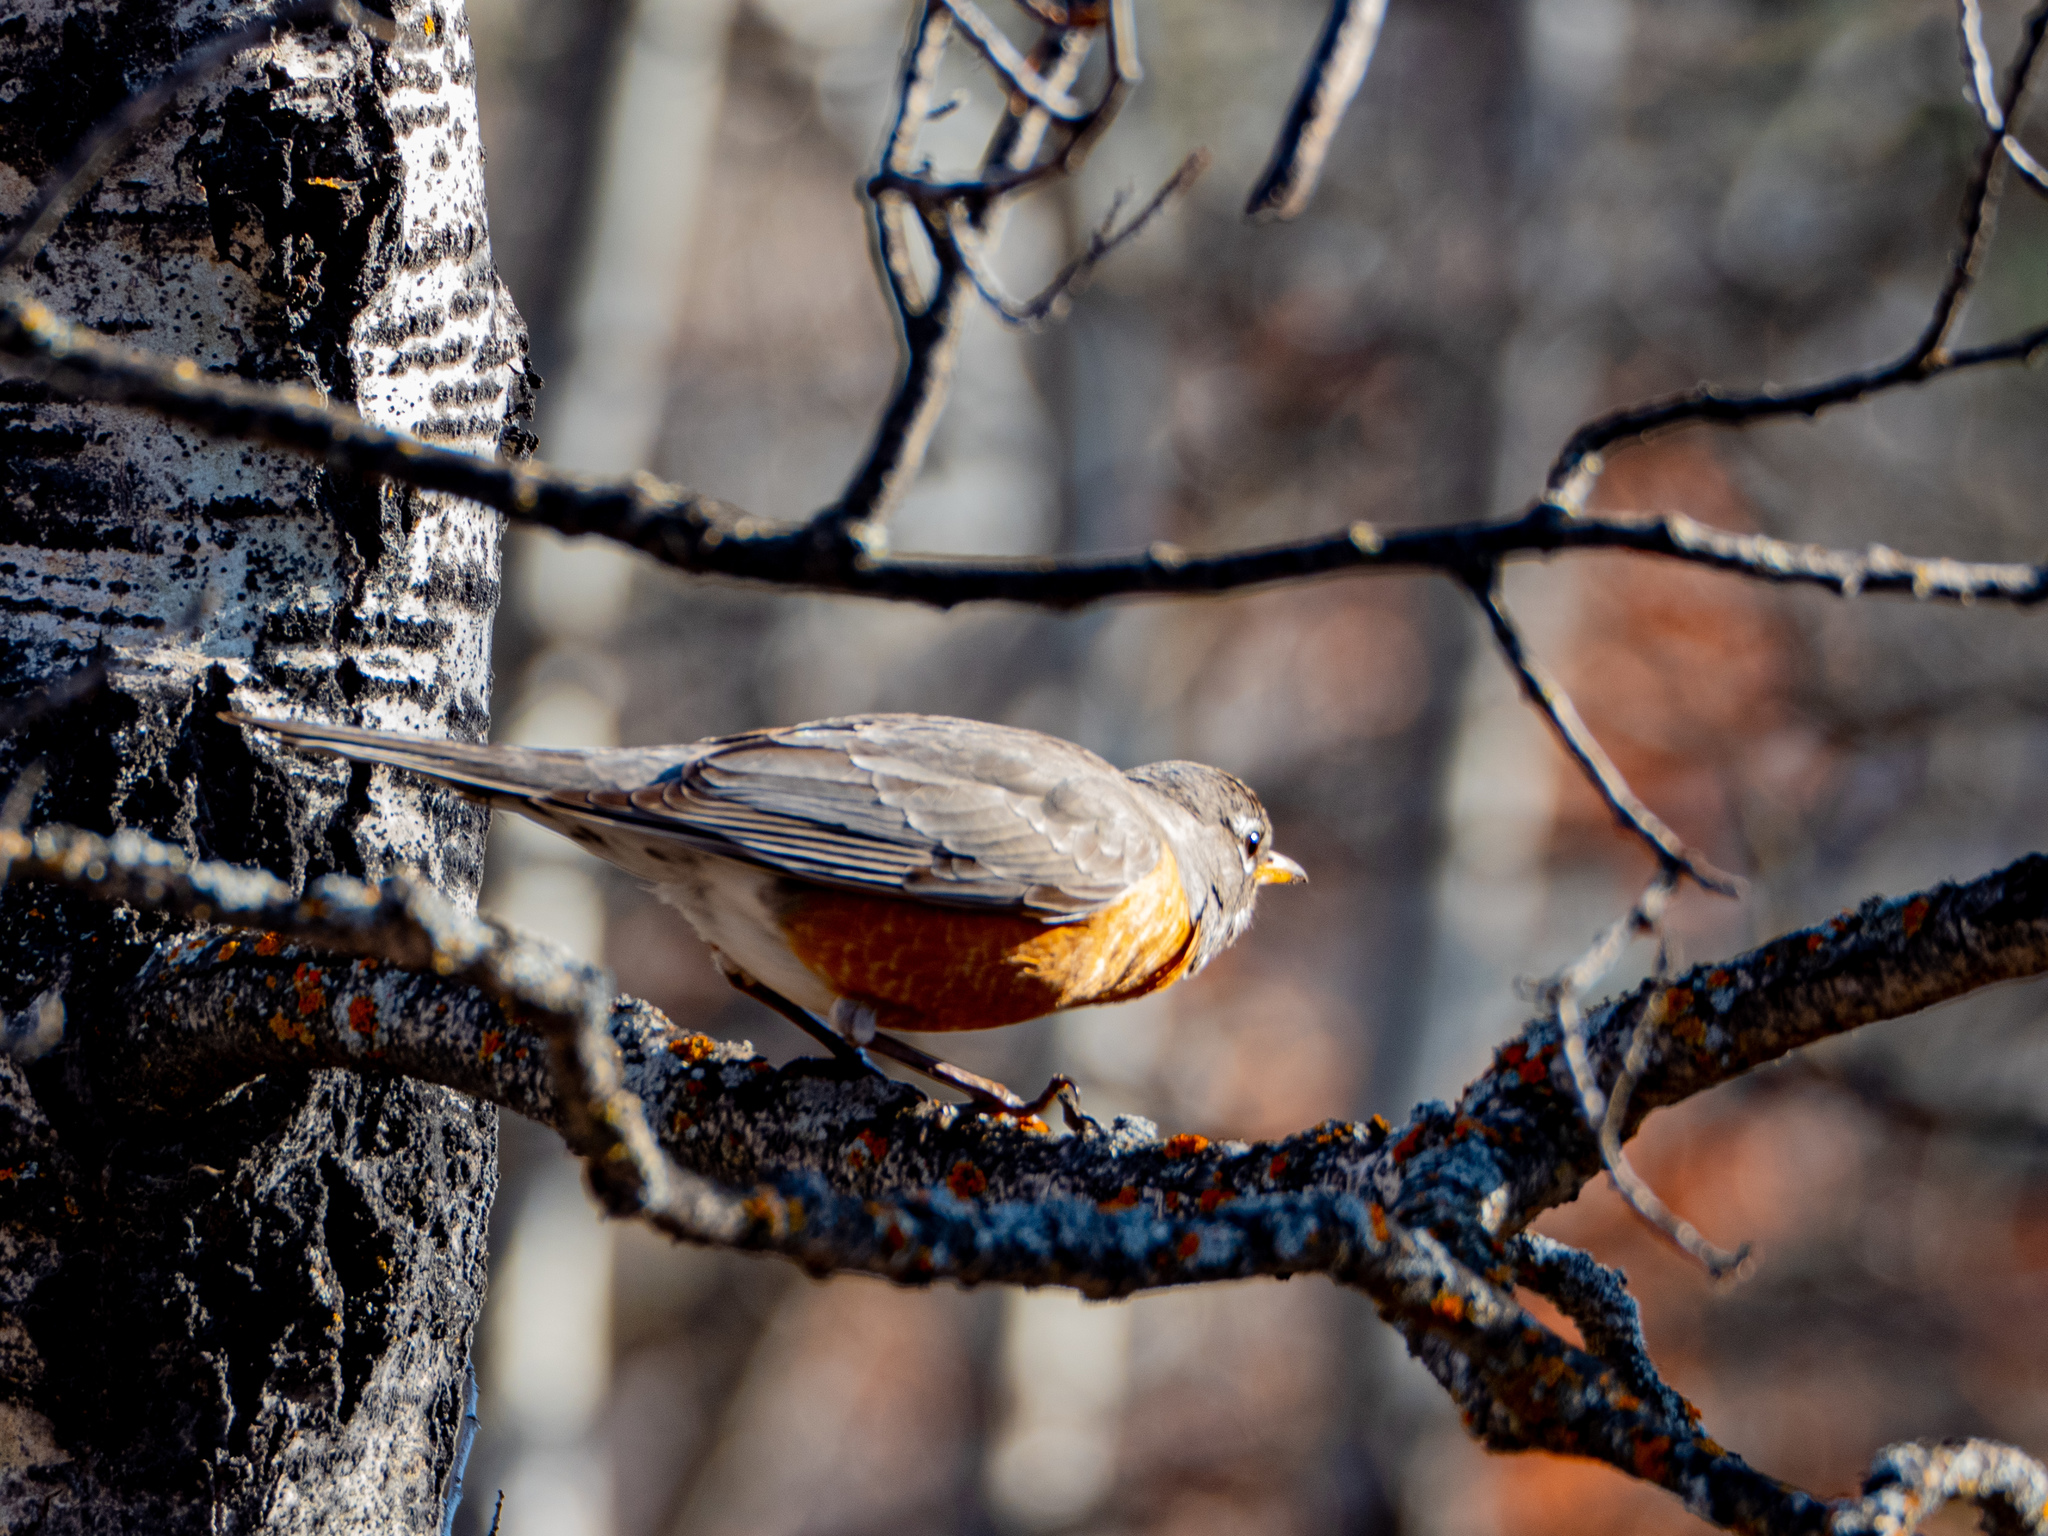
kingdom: Animalia
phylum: Chordata
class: Aves
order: Passeriformes
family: Turdidae
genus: Turdus
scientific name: Turdus migratorius
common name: American robin
